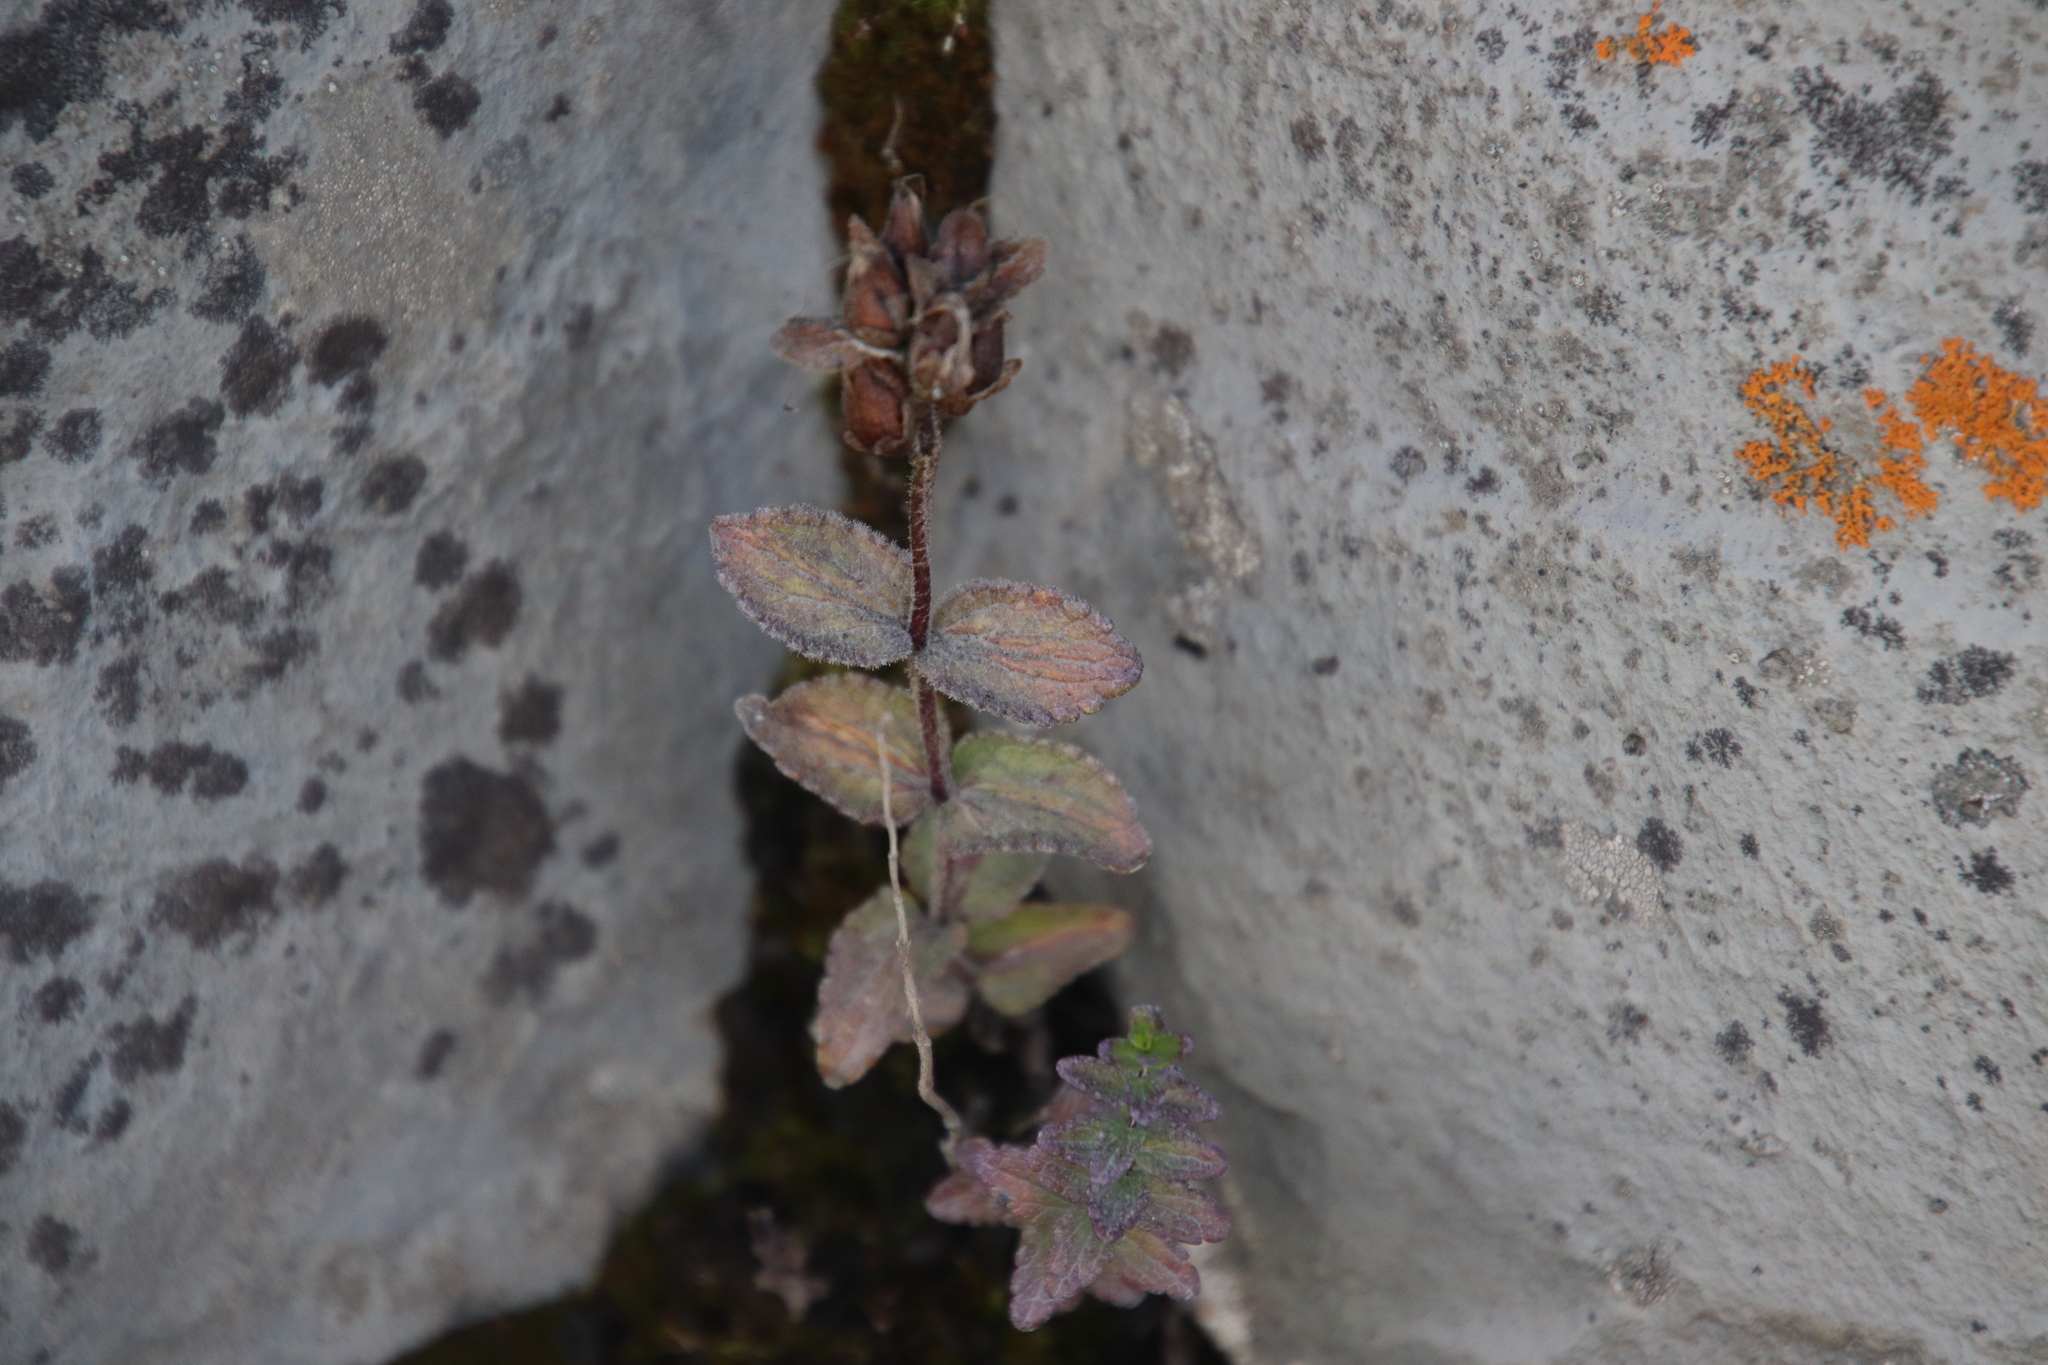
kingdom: Plantae
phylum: Tracheophyta
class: Magnoliopsida
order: Lamiales
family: Orobanchaceae
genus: Bartsia
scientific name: Bartsia alpina
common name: Alpine bartsia
